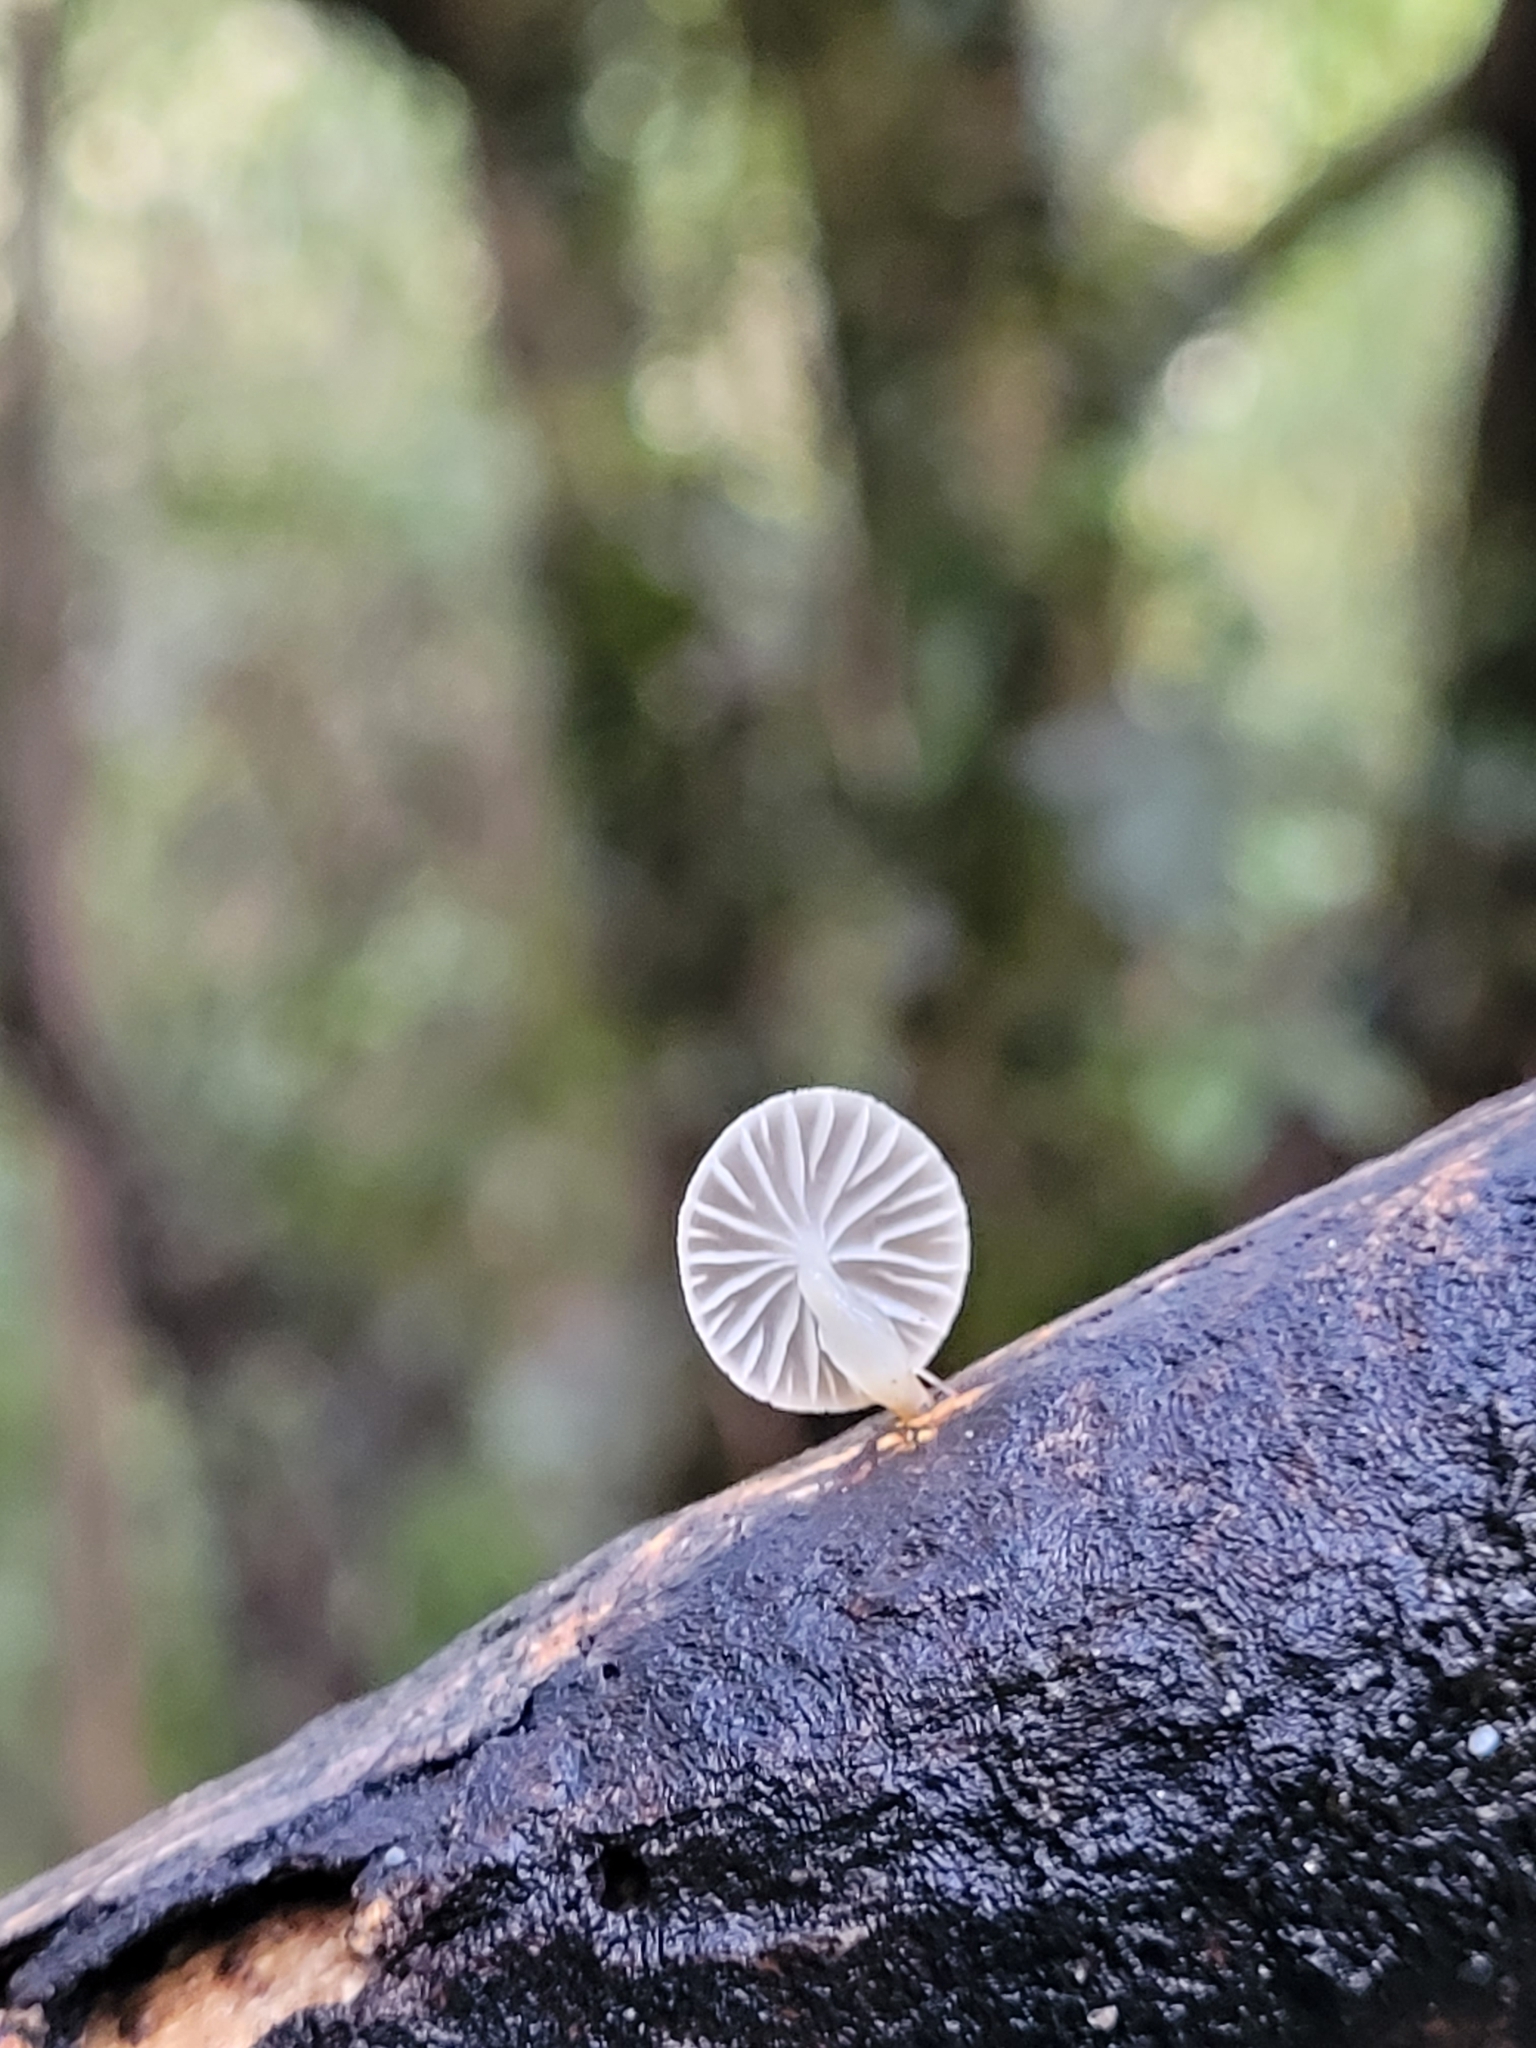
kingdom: Fungi
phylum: Basidiomycota
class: Agaricomycetes
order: Agaricales
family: Mycenaceae
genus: Roridomyces
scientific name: Roridomyces austrororidus
